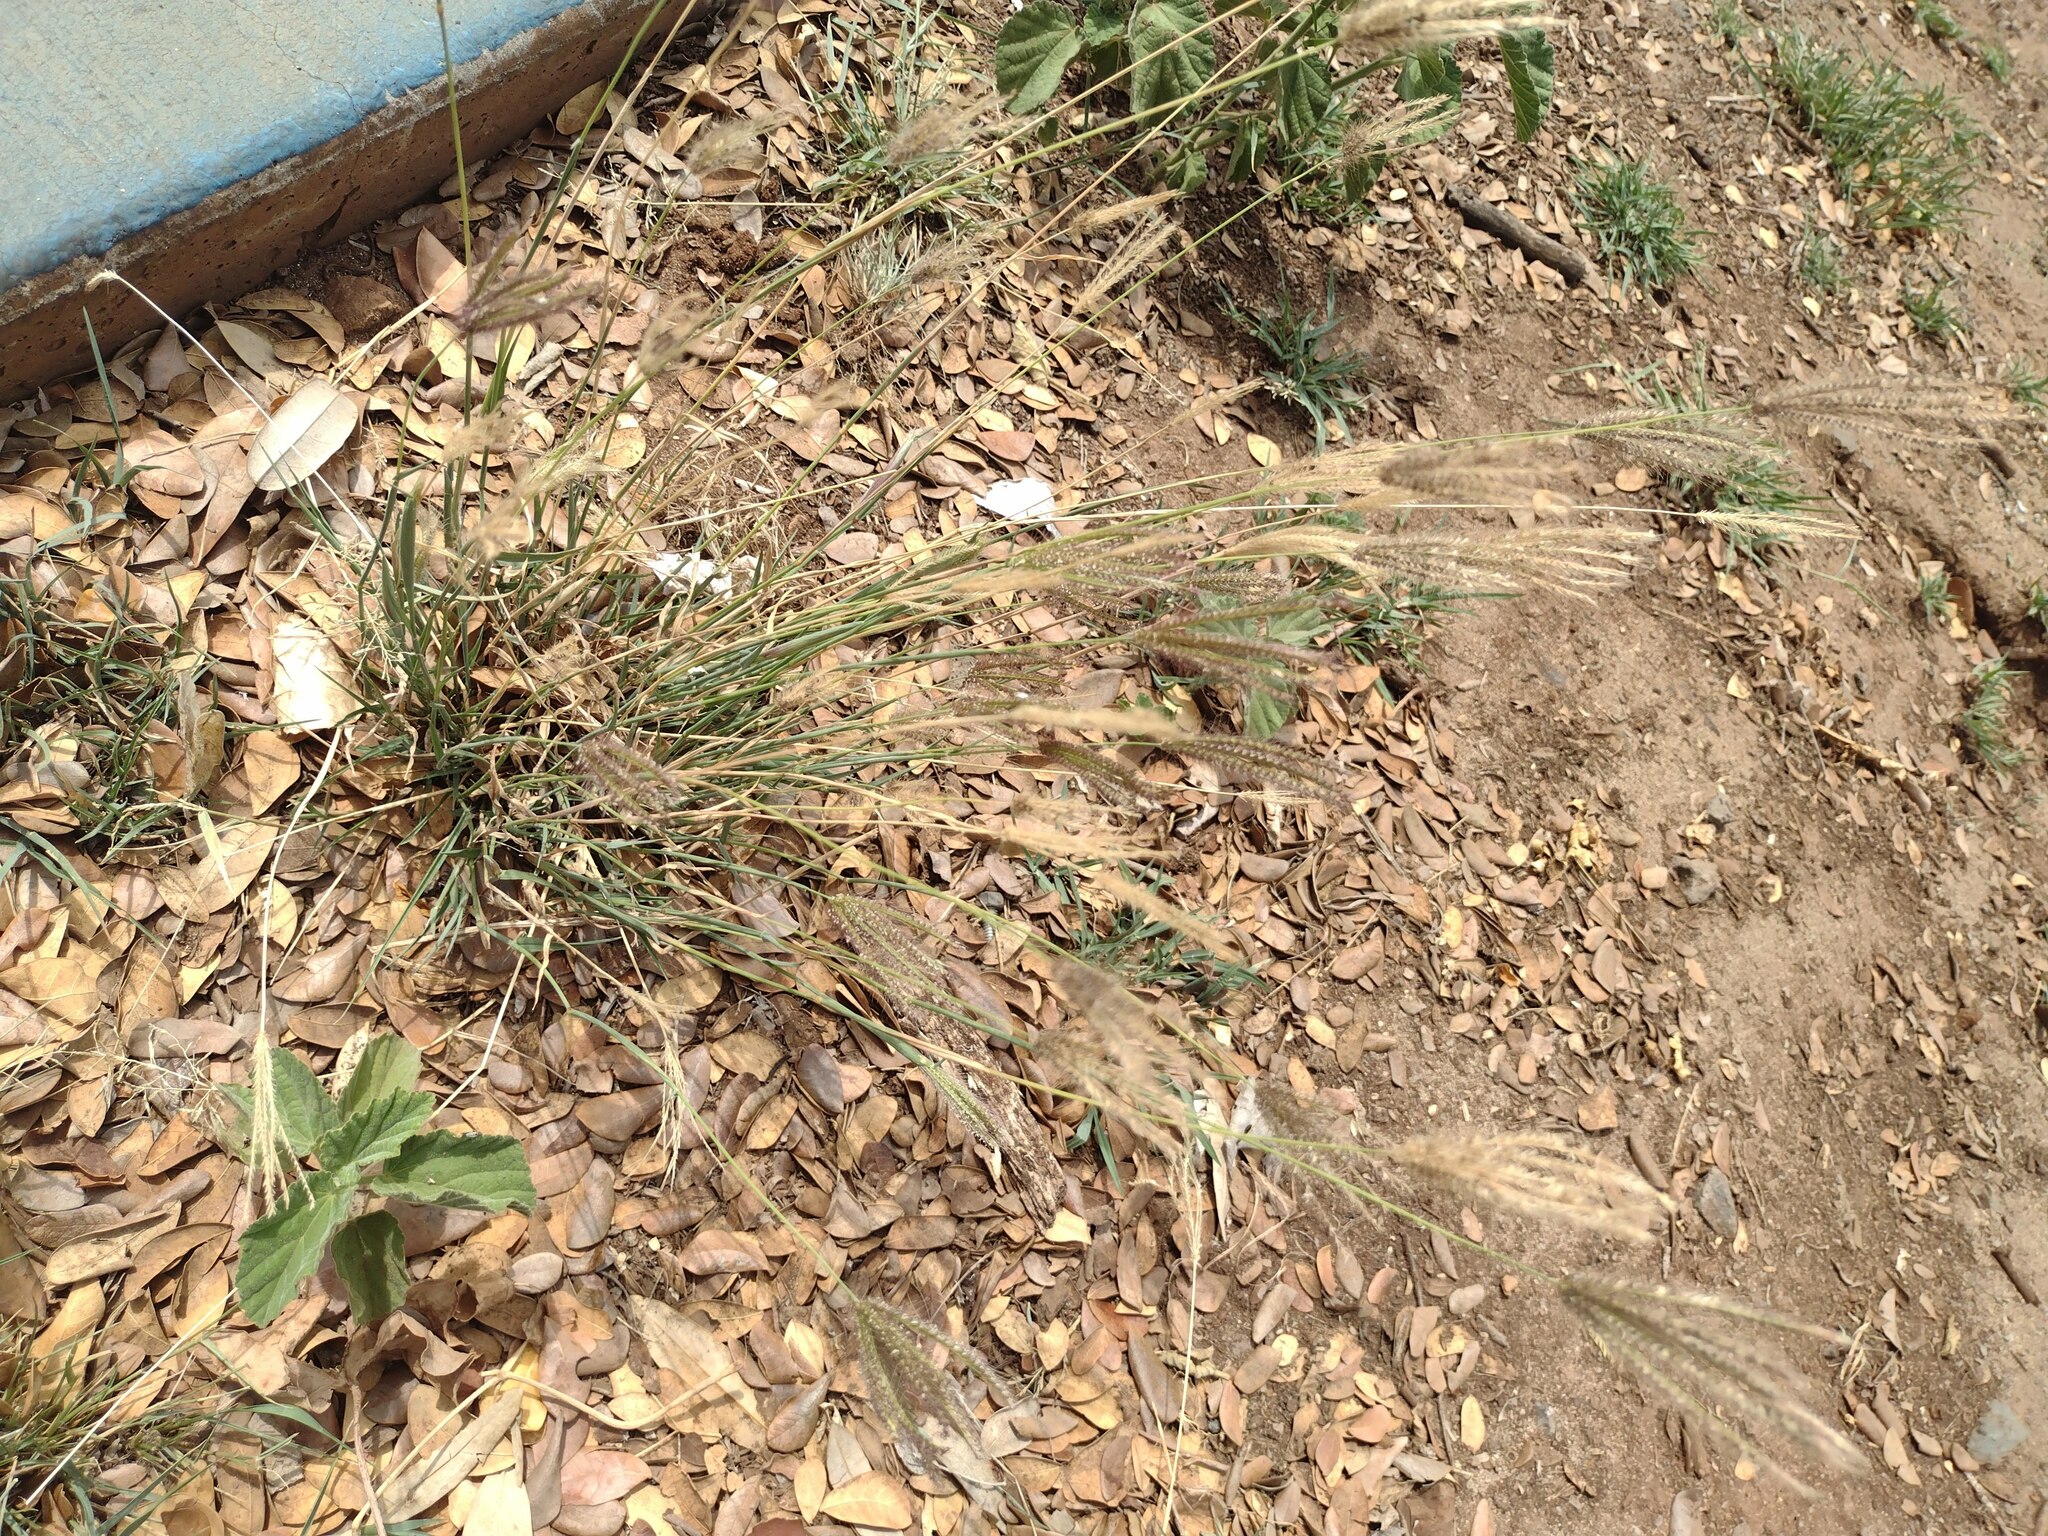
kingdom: Plantae
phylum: Tracheophyta
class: Liliopsida
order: Poales
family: Poaceae
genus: Chloris
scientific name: Chloris barbata
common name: Swollen fingergrass
